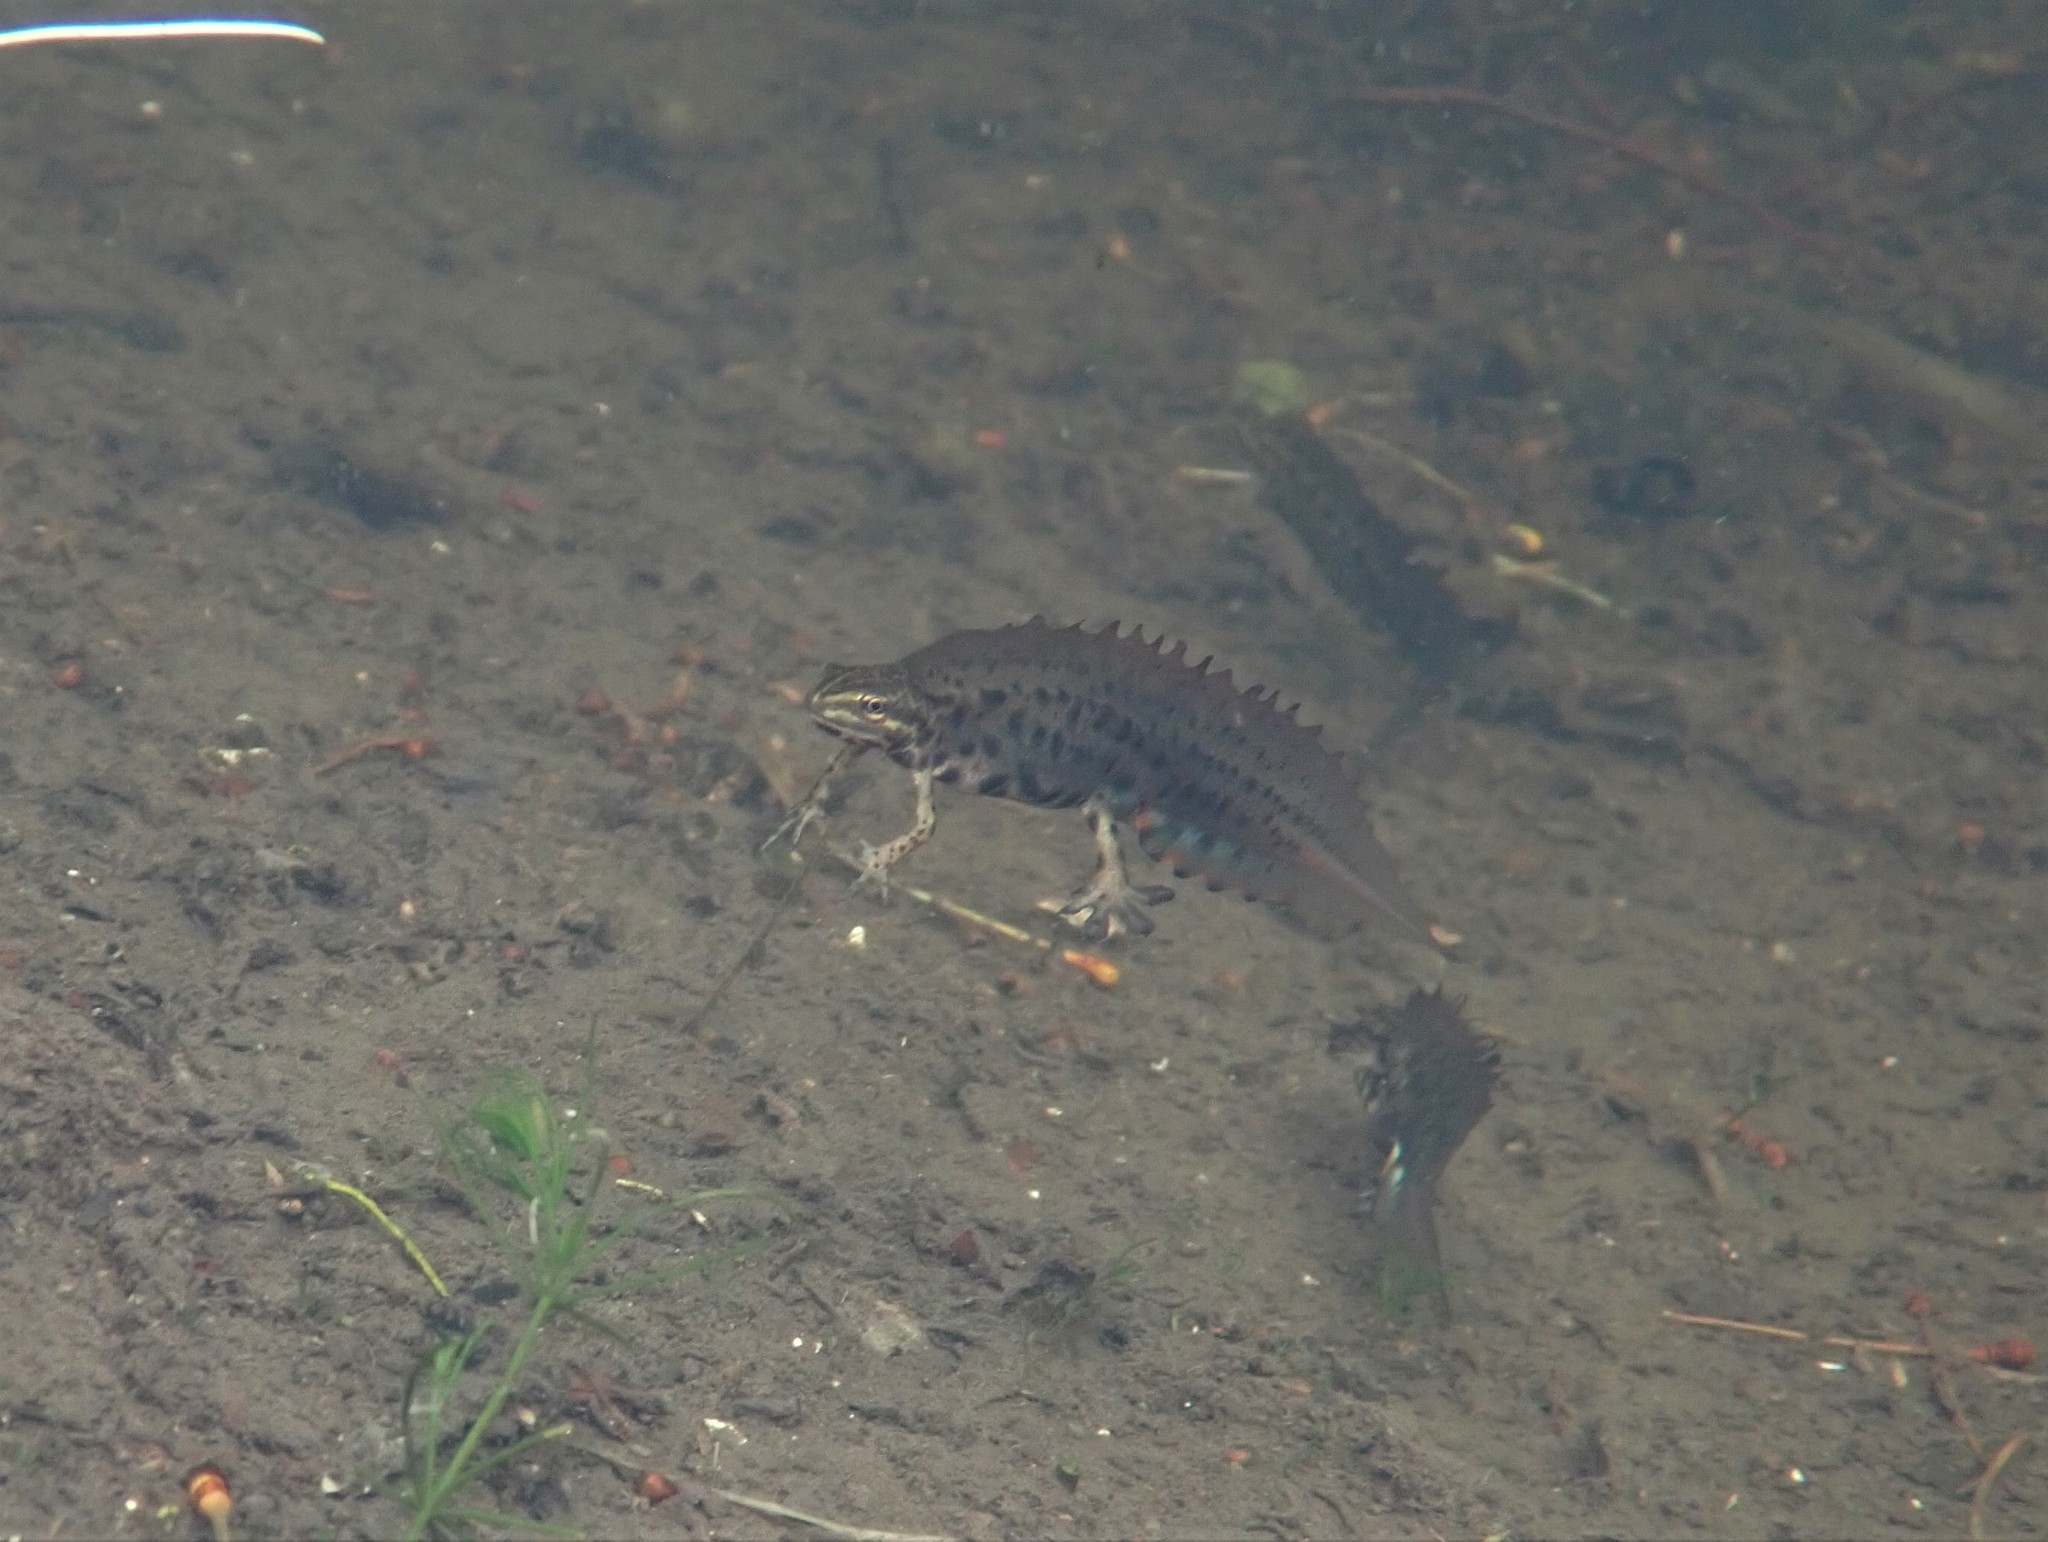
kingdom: Animalia
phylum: Chordata
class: Amphibia
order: Caudata
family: Salamandridae
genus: Lissotriton
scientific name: Lissotriton vulgaris
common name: Smooth newt
